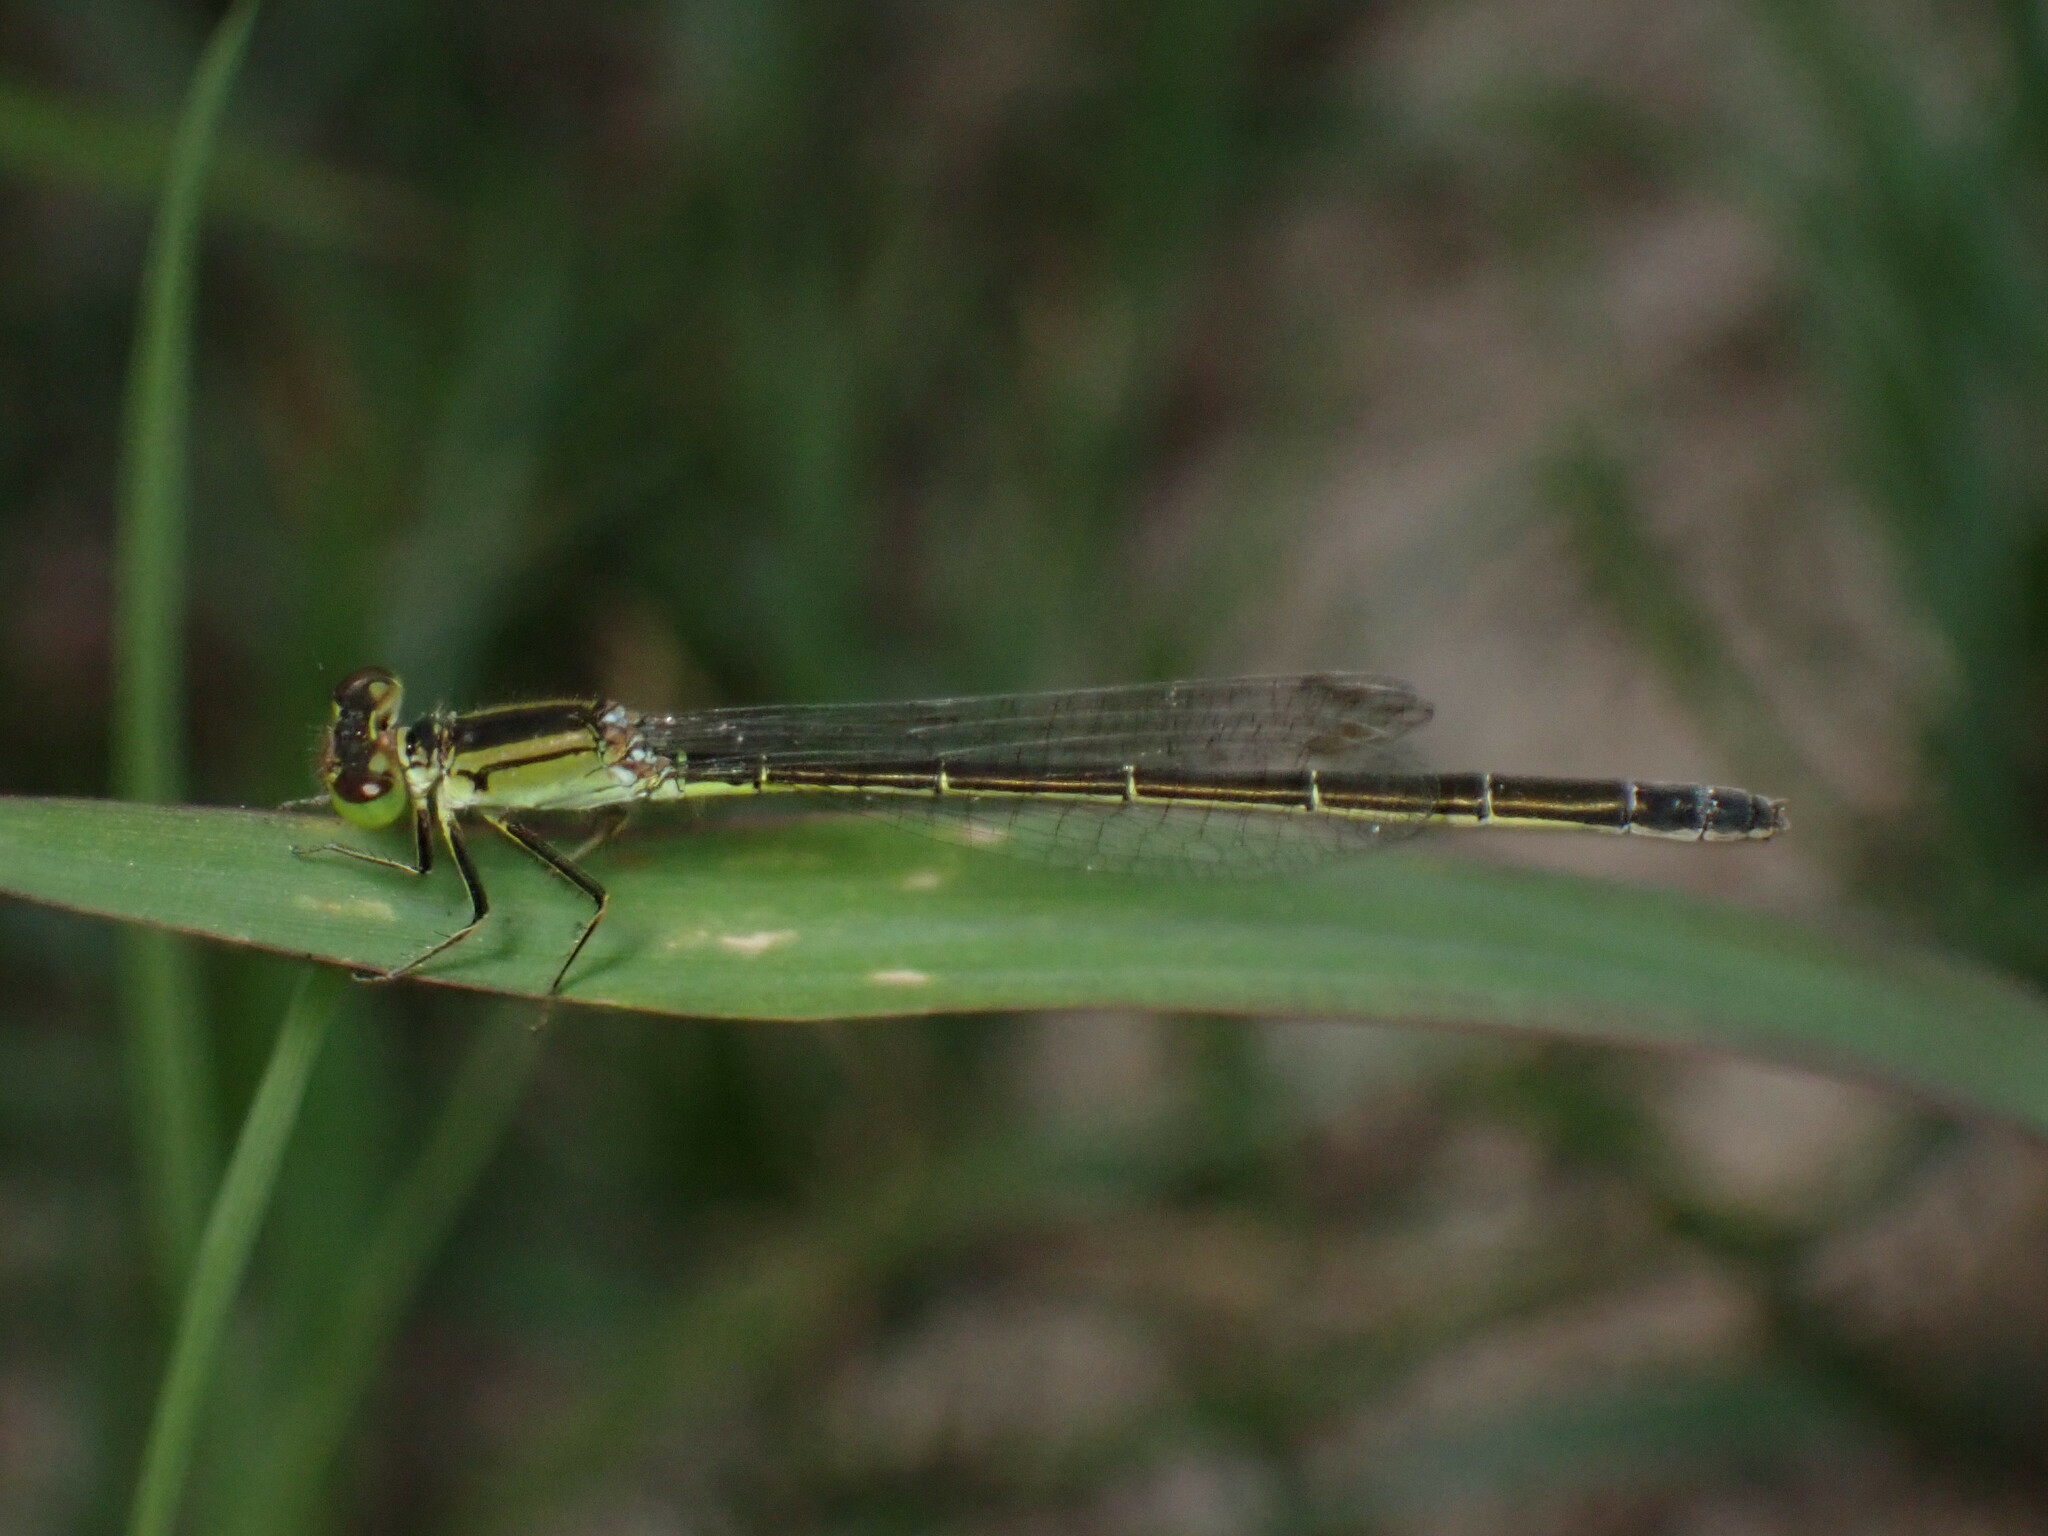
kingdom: Animalia
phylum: Arthropoda
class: Insecta
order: Odonata
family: Coenagrionidae
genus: Ischnura
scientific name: Ischnura denticollis
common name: Black-fronted forktail
